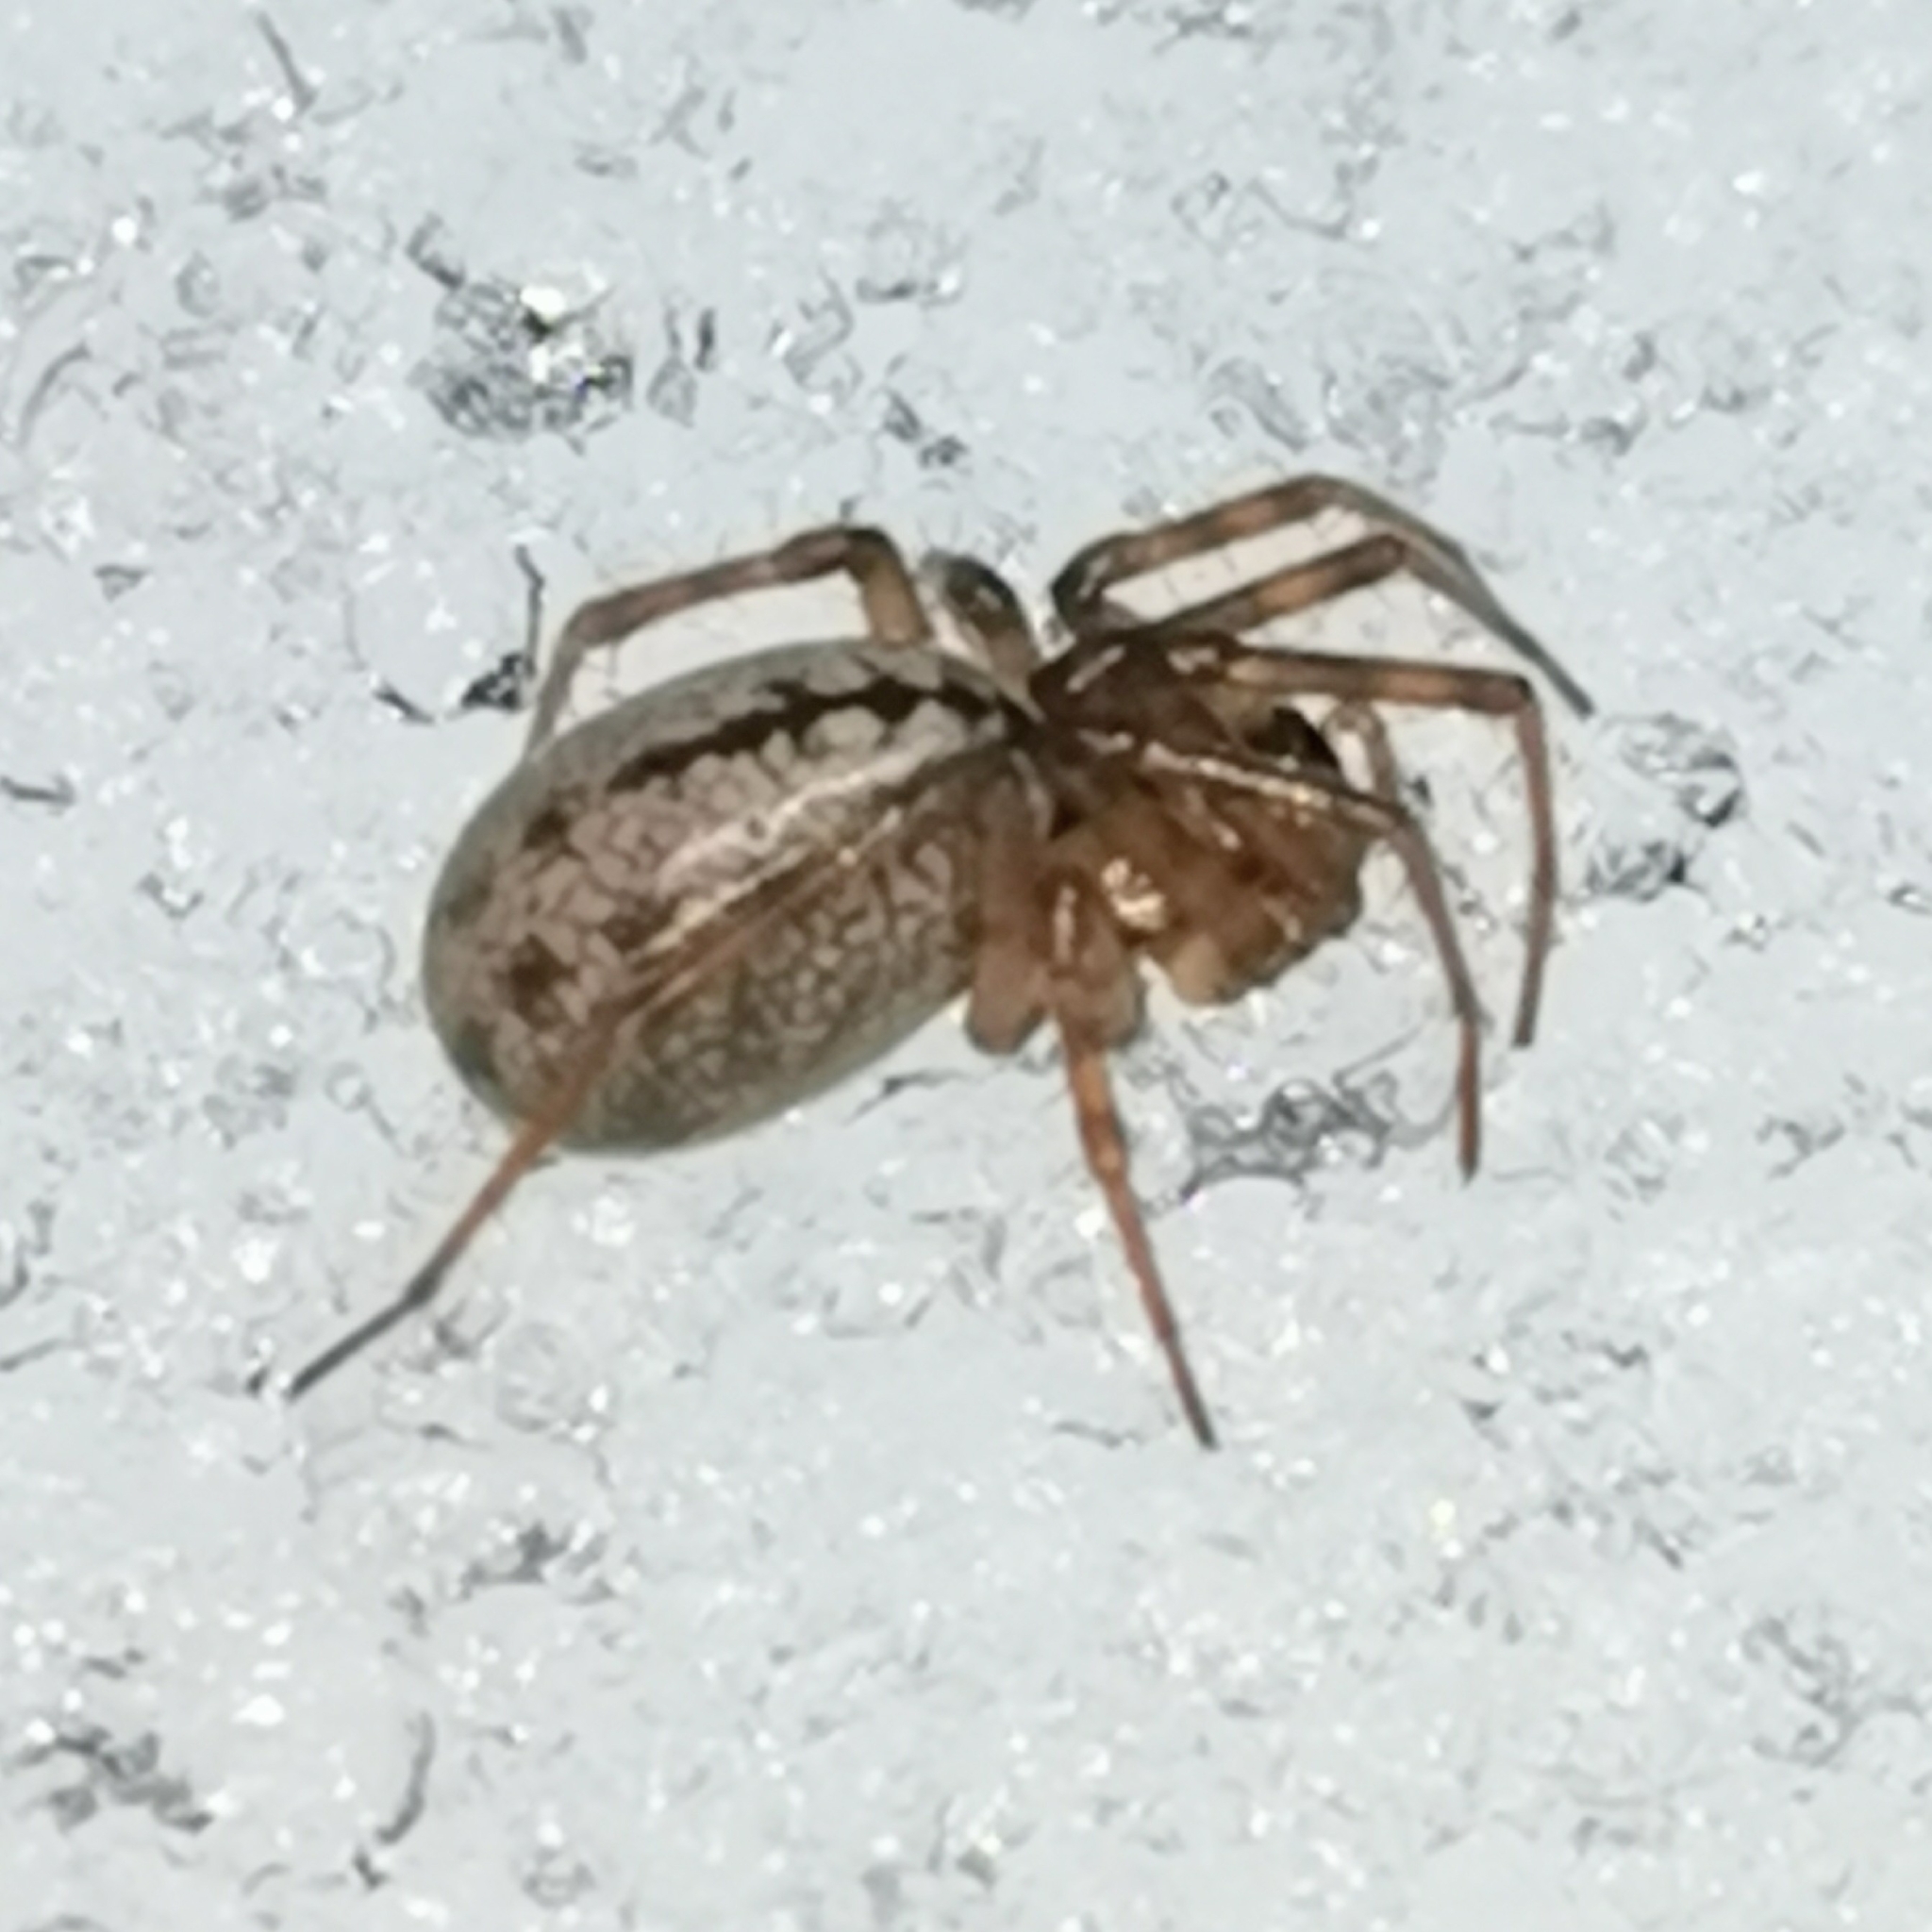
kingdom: Animalia
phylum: Arthropoda
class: Arachnida
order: Araneae
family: Linyphiidae
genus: Stemonyphantes
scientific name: Stemonyphantes lineatus
